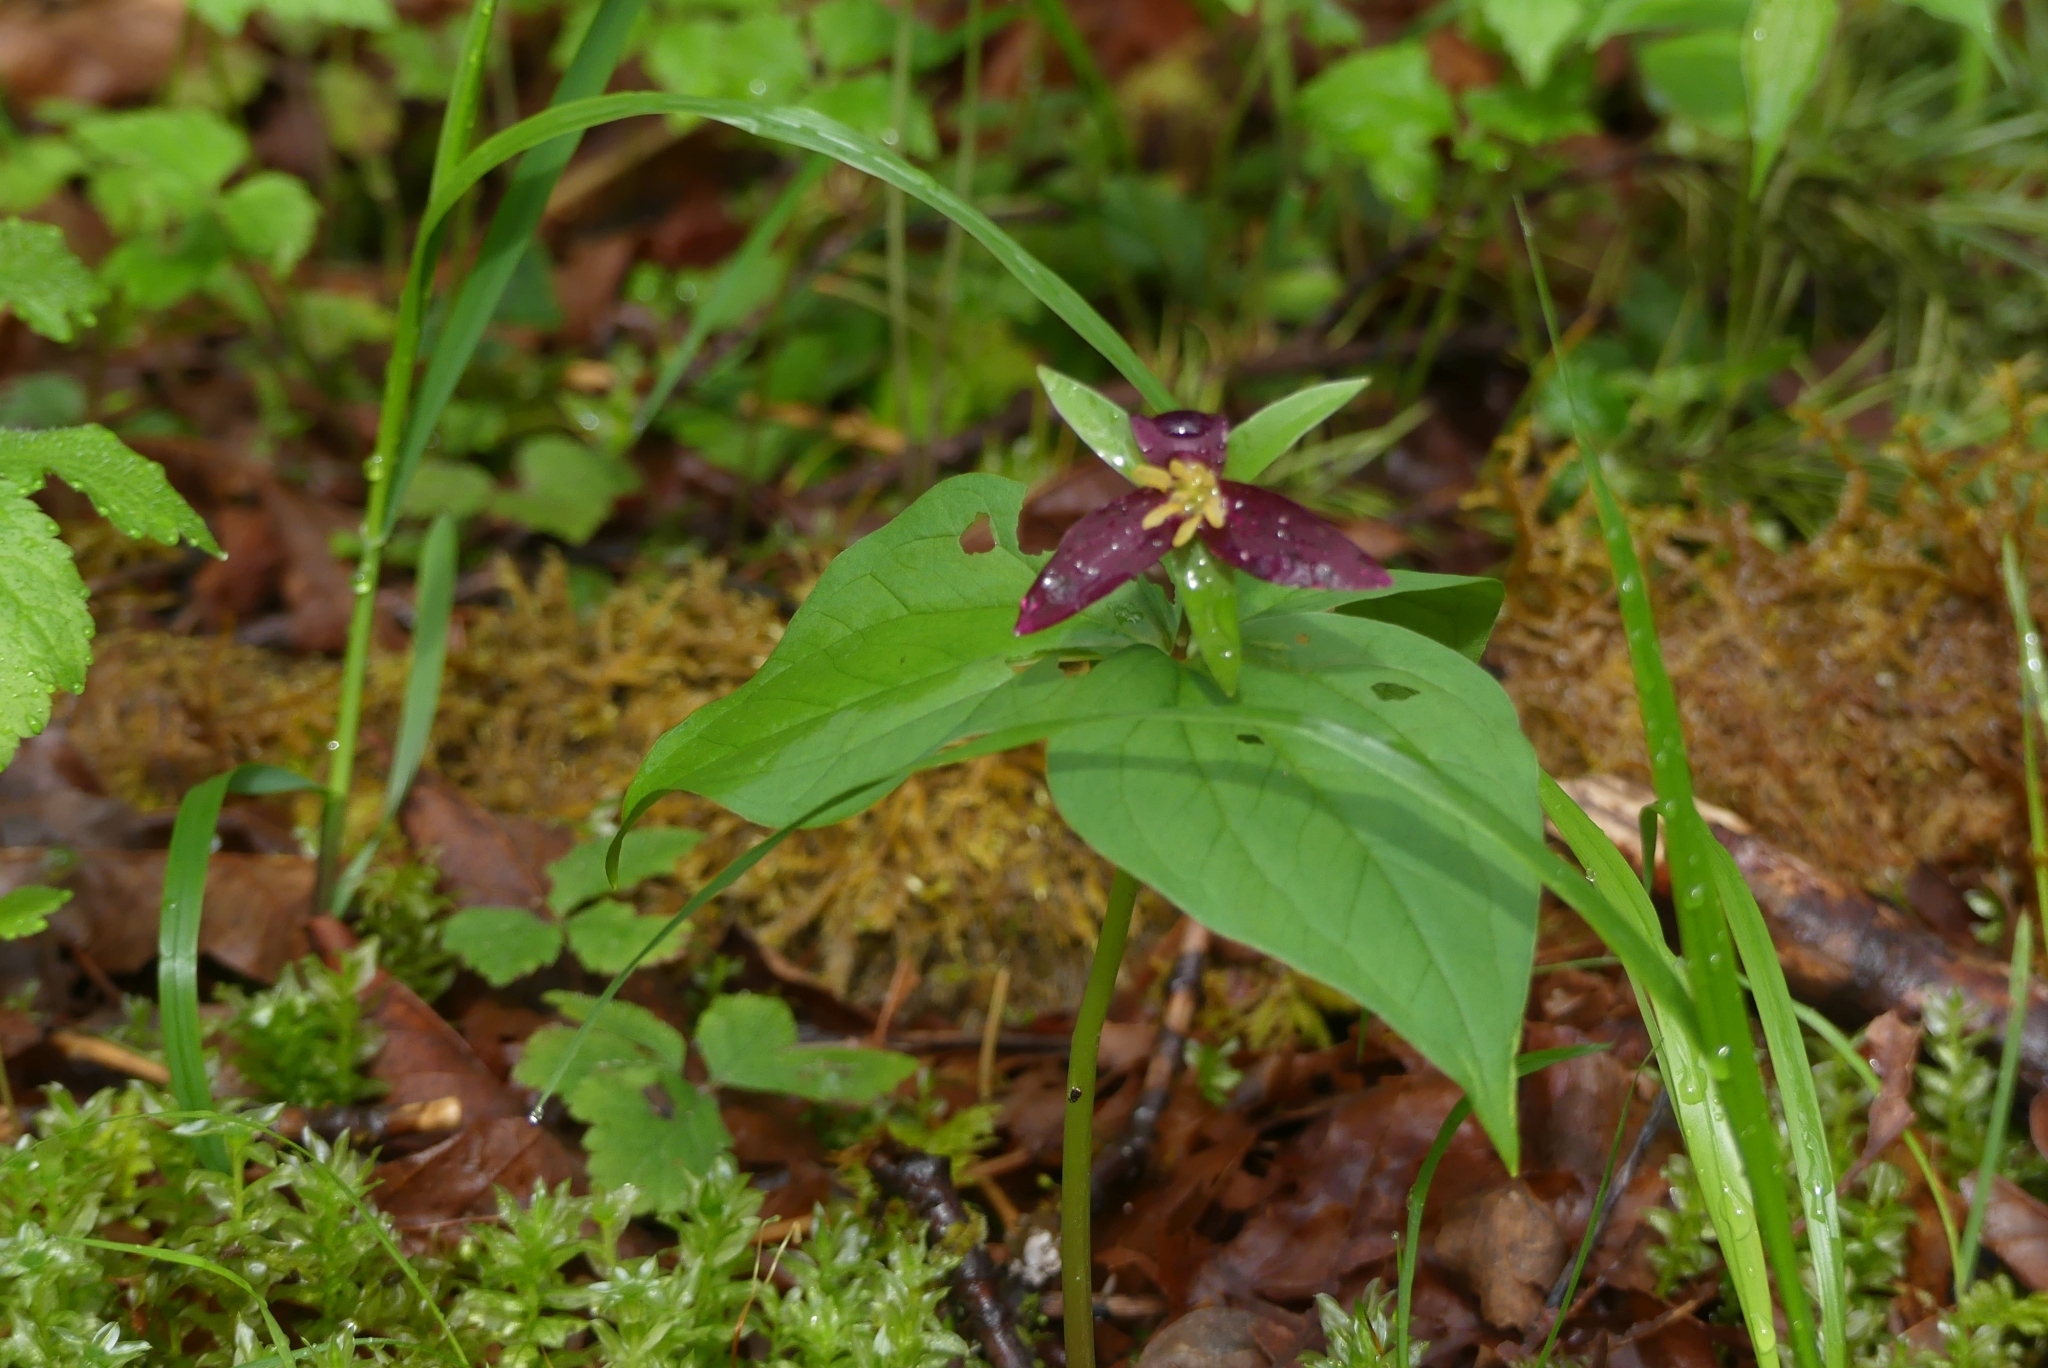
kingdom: Plantae
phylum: Tracheophyta
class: Liliopsida
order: Liliales
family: Melanthiaceae
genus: Trillium
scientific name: Trillium ovatum
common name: Pacific trillium
